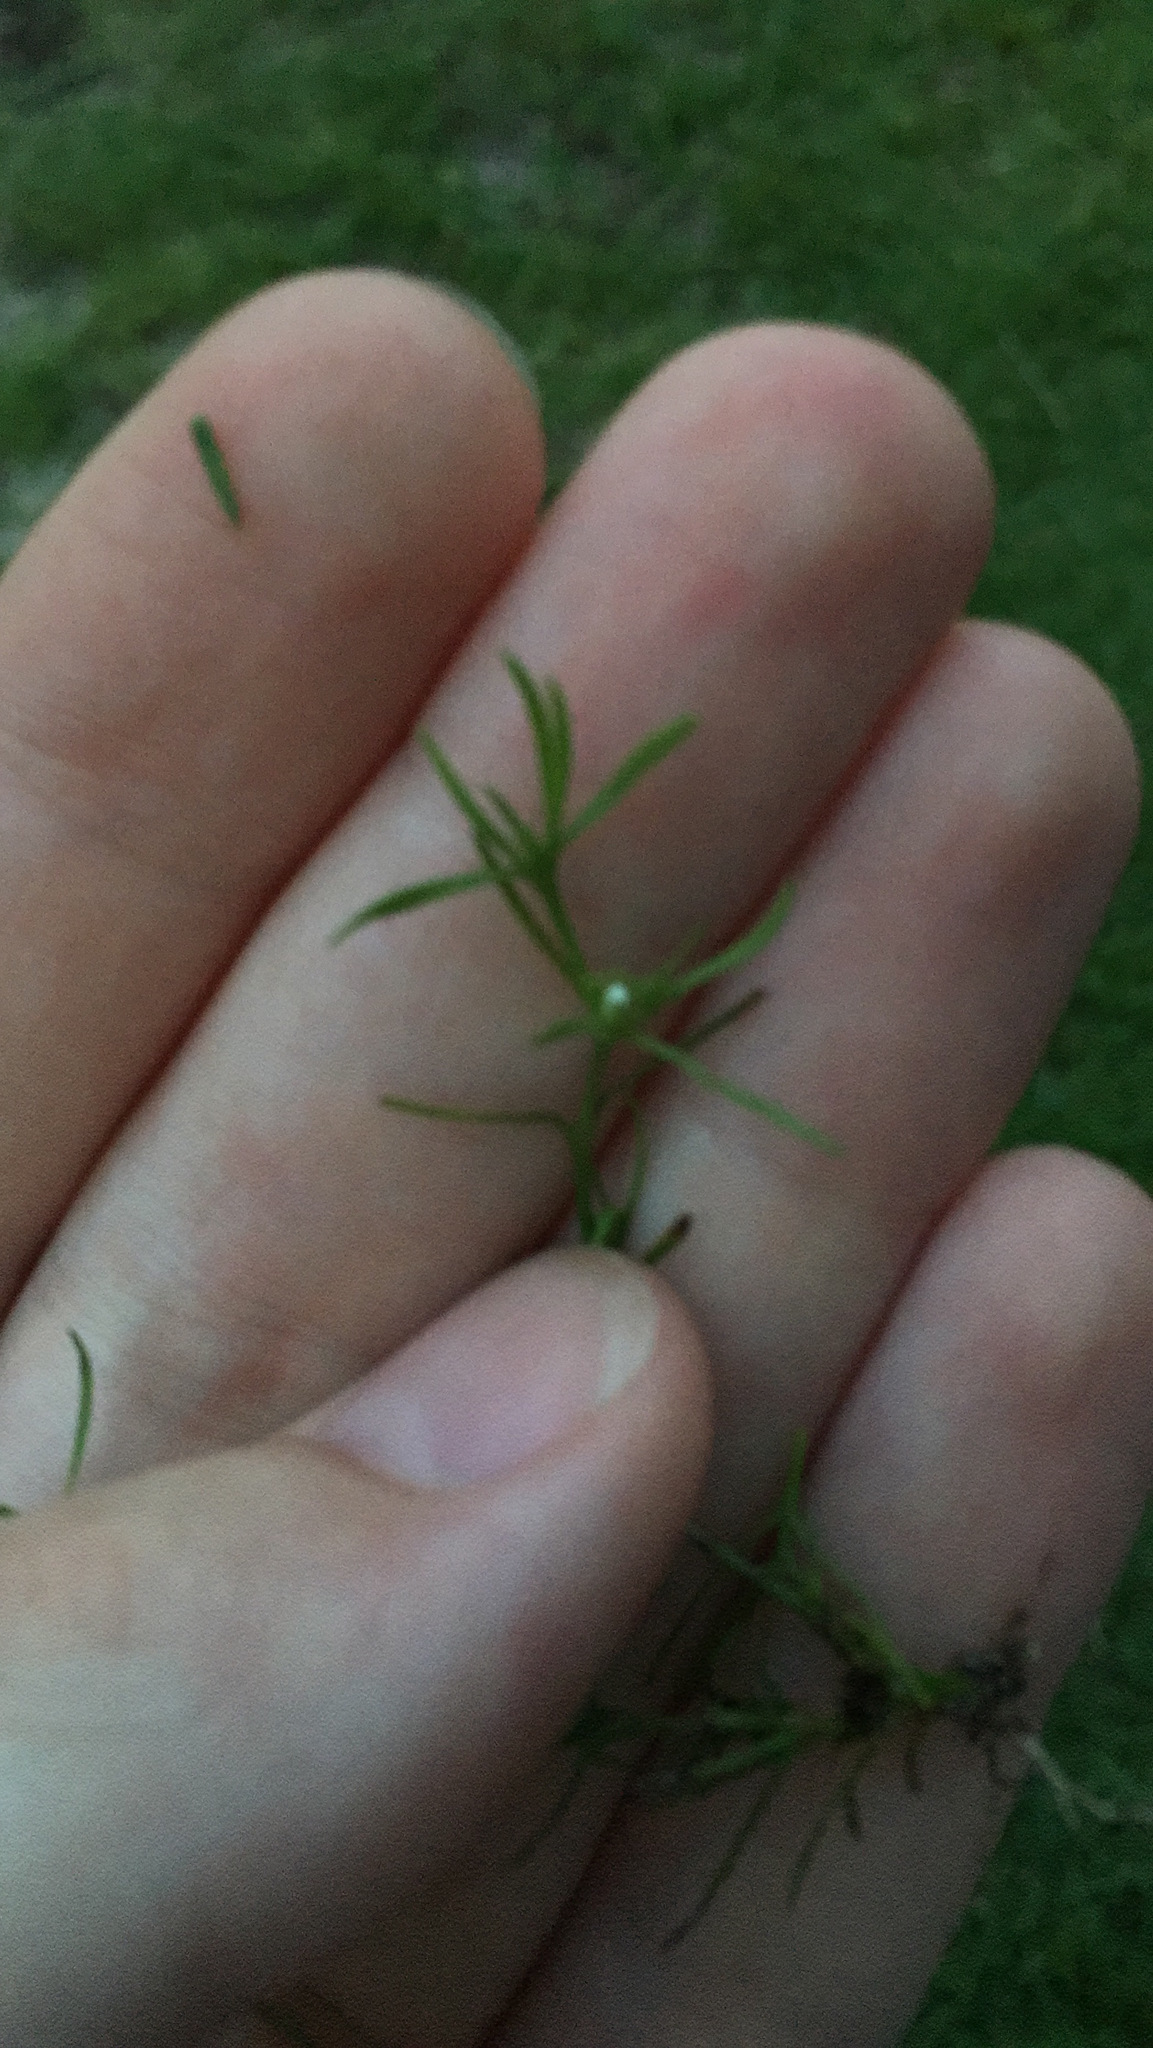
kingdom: Plantae
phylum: Tracheophyta
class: Magnoliopsida
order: Lamiales
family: Tetrachondraceae
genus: Polypremum
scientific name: Polypremum procumbens
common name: Juniper-leaf
